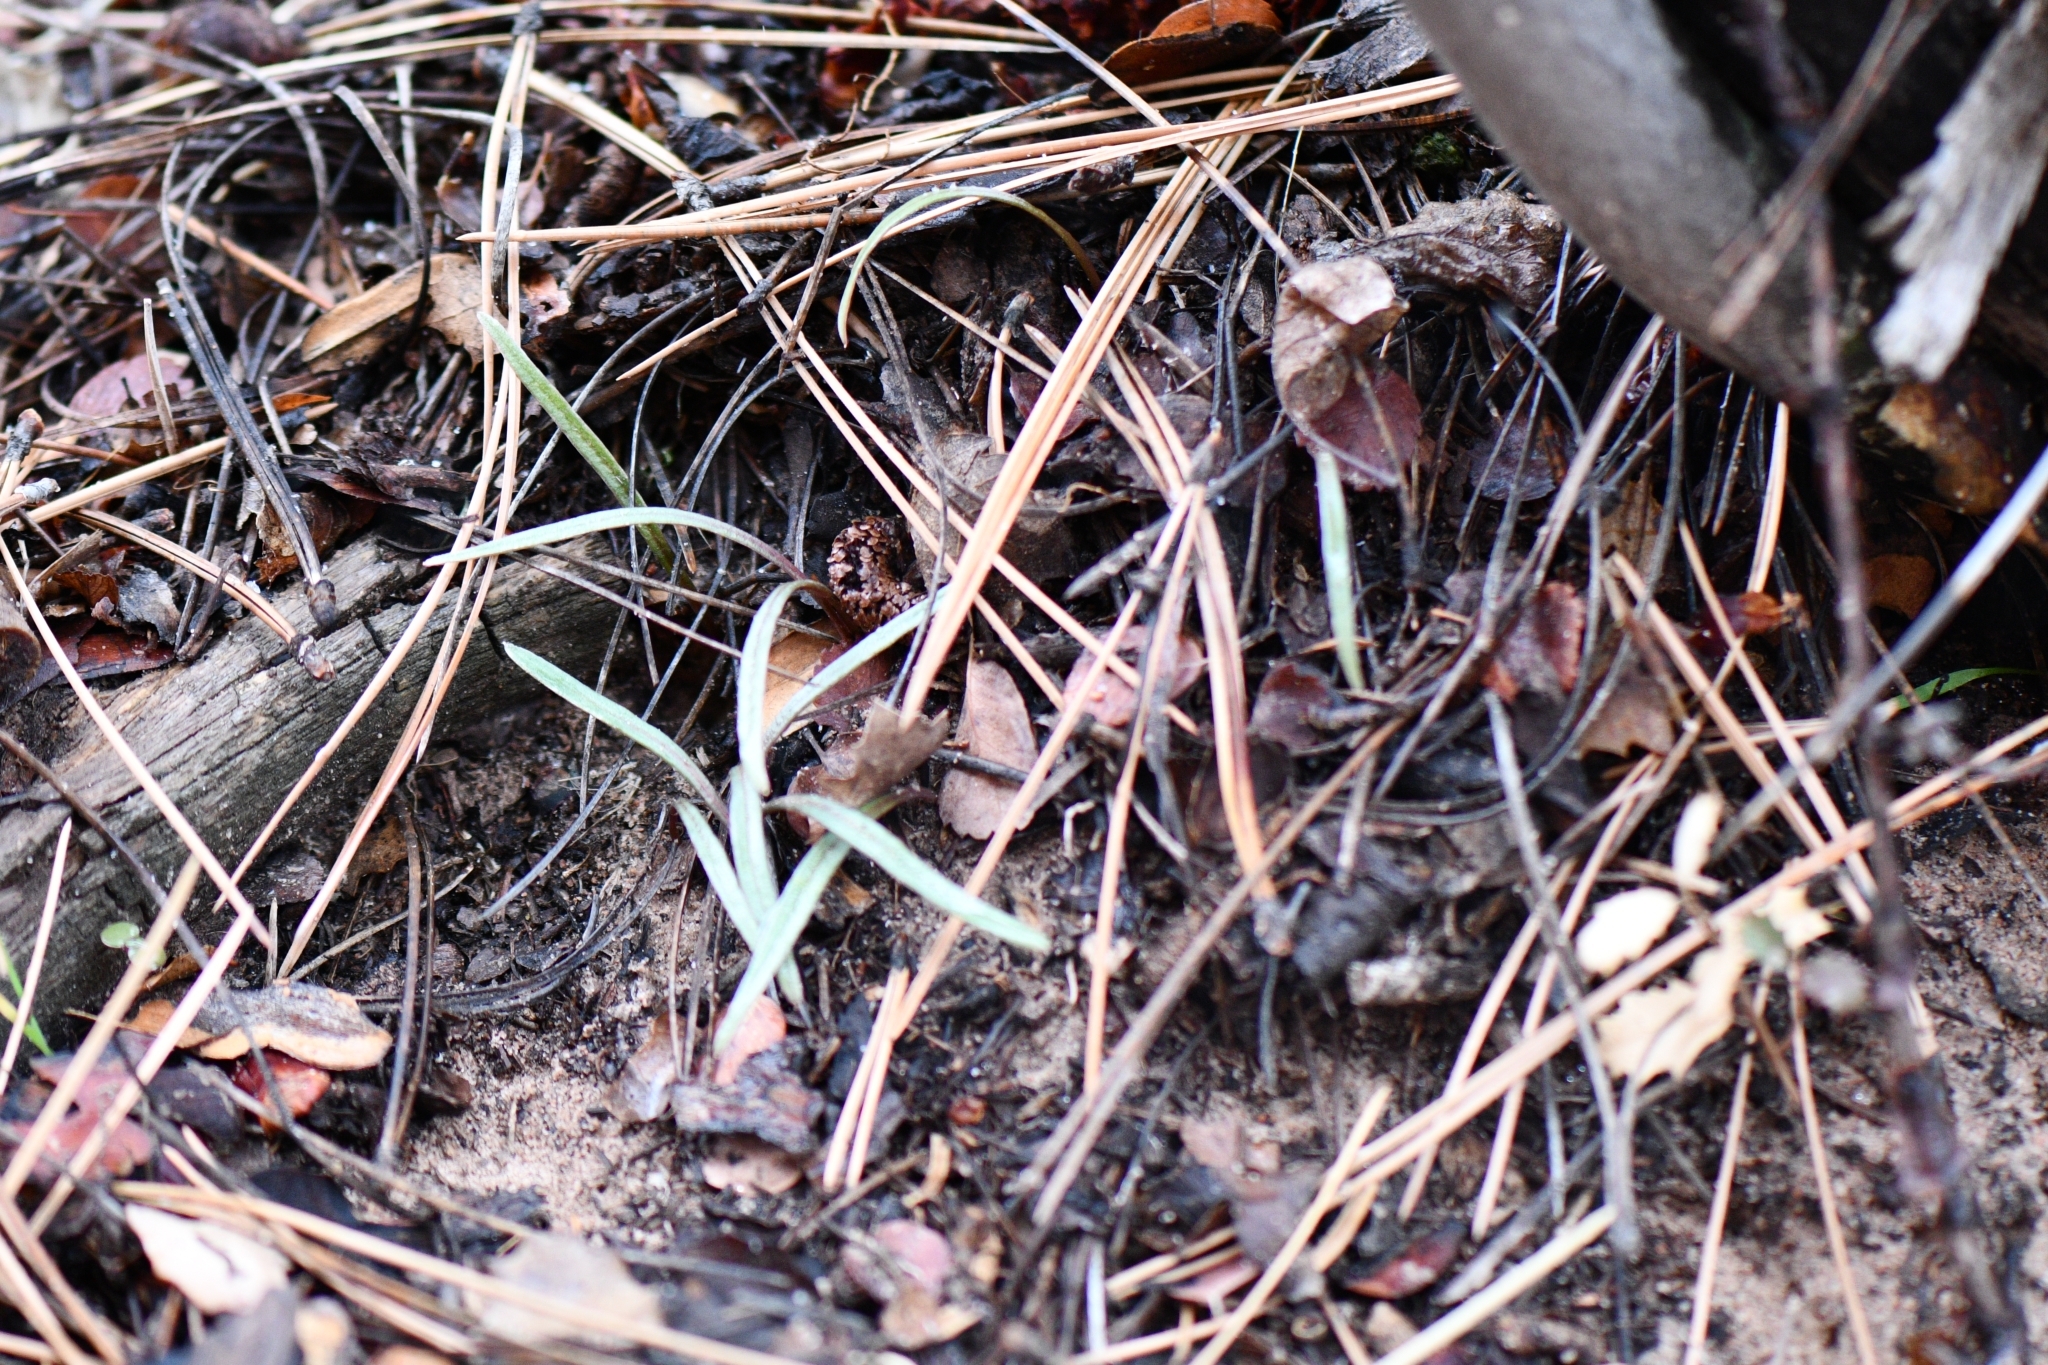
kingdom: Plantae
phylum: Tracheophyta
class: Magnoliopsida
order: Caryophyllales
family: Montiaceae
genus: Claytonia
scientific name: Claytonia rosea
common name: Rocky mountain spring-beauty
